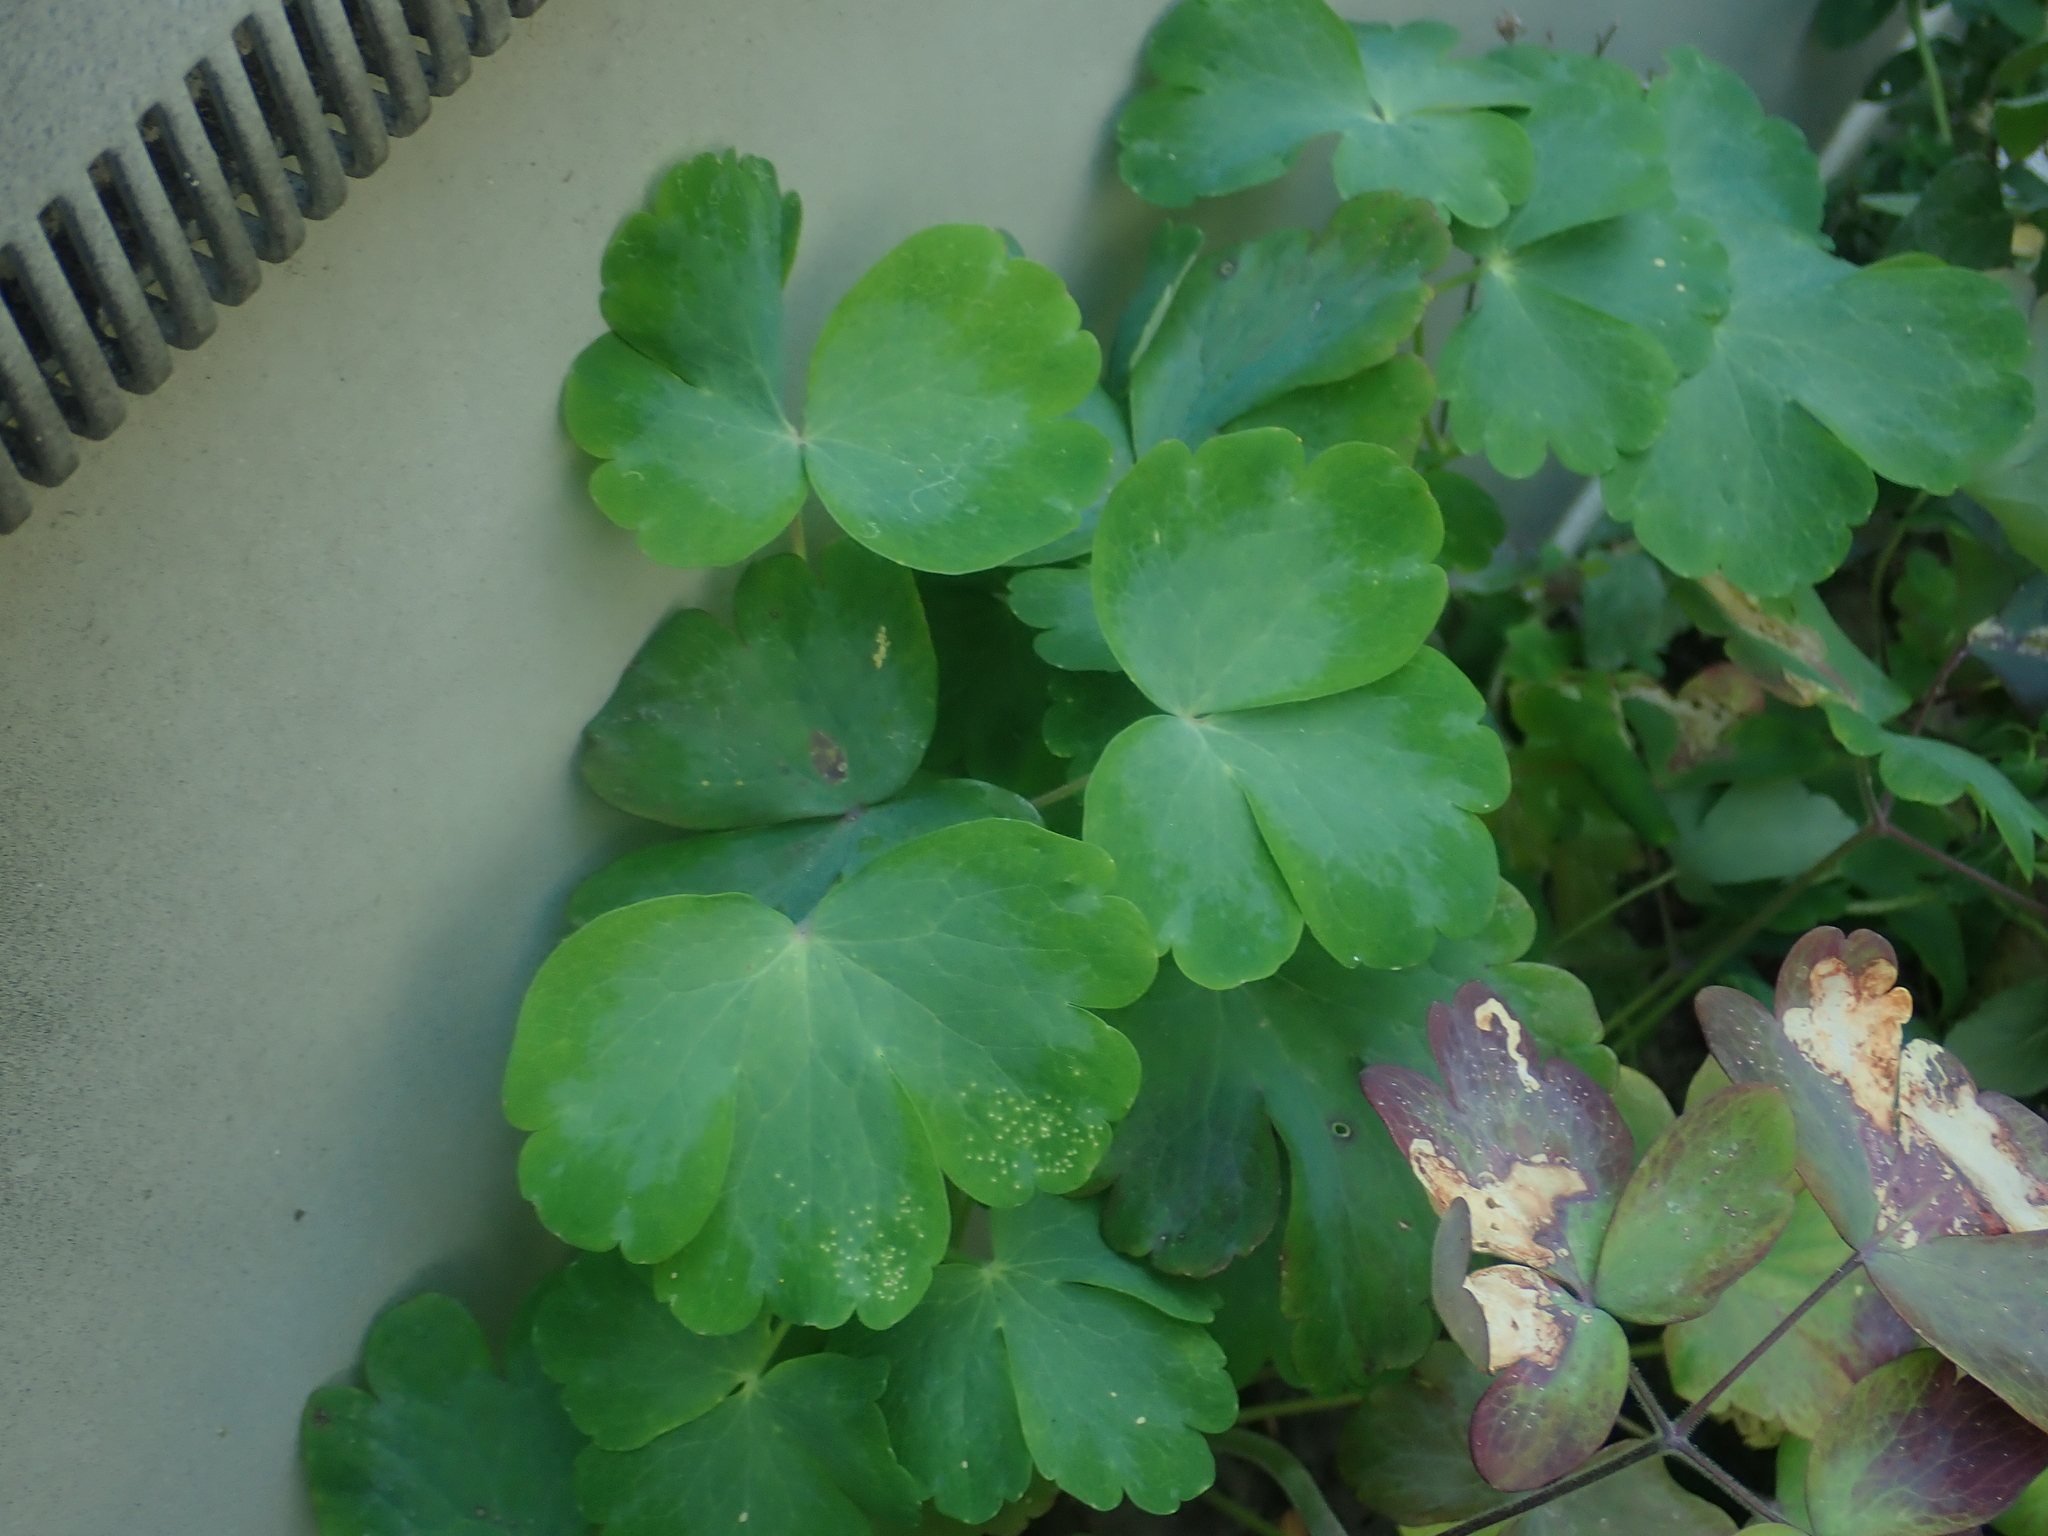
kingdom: Plantae
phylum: Tracheophyta
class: Magnoliopsida
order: Ranunculales
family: Ranunculaceae
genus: Aquilegia
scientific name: Aquilegia vulgaris
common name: Columbine
